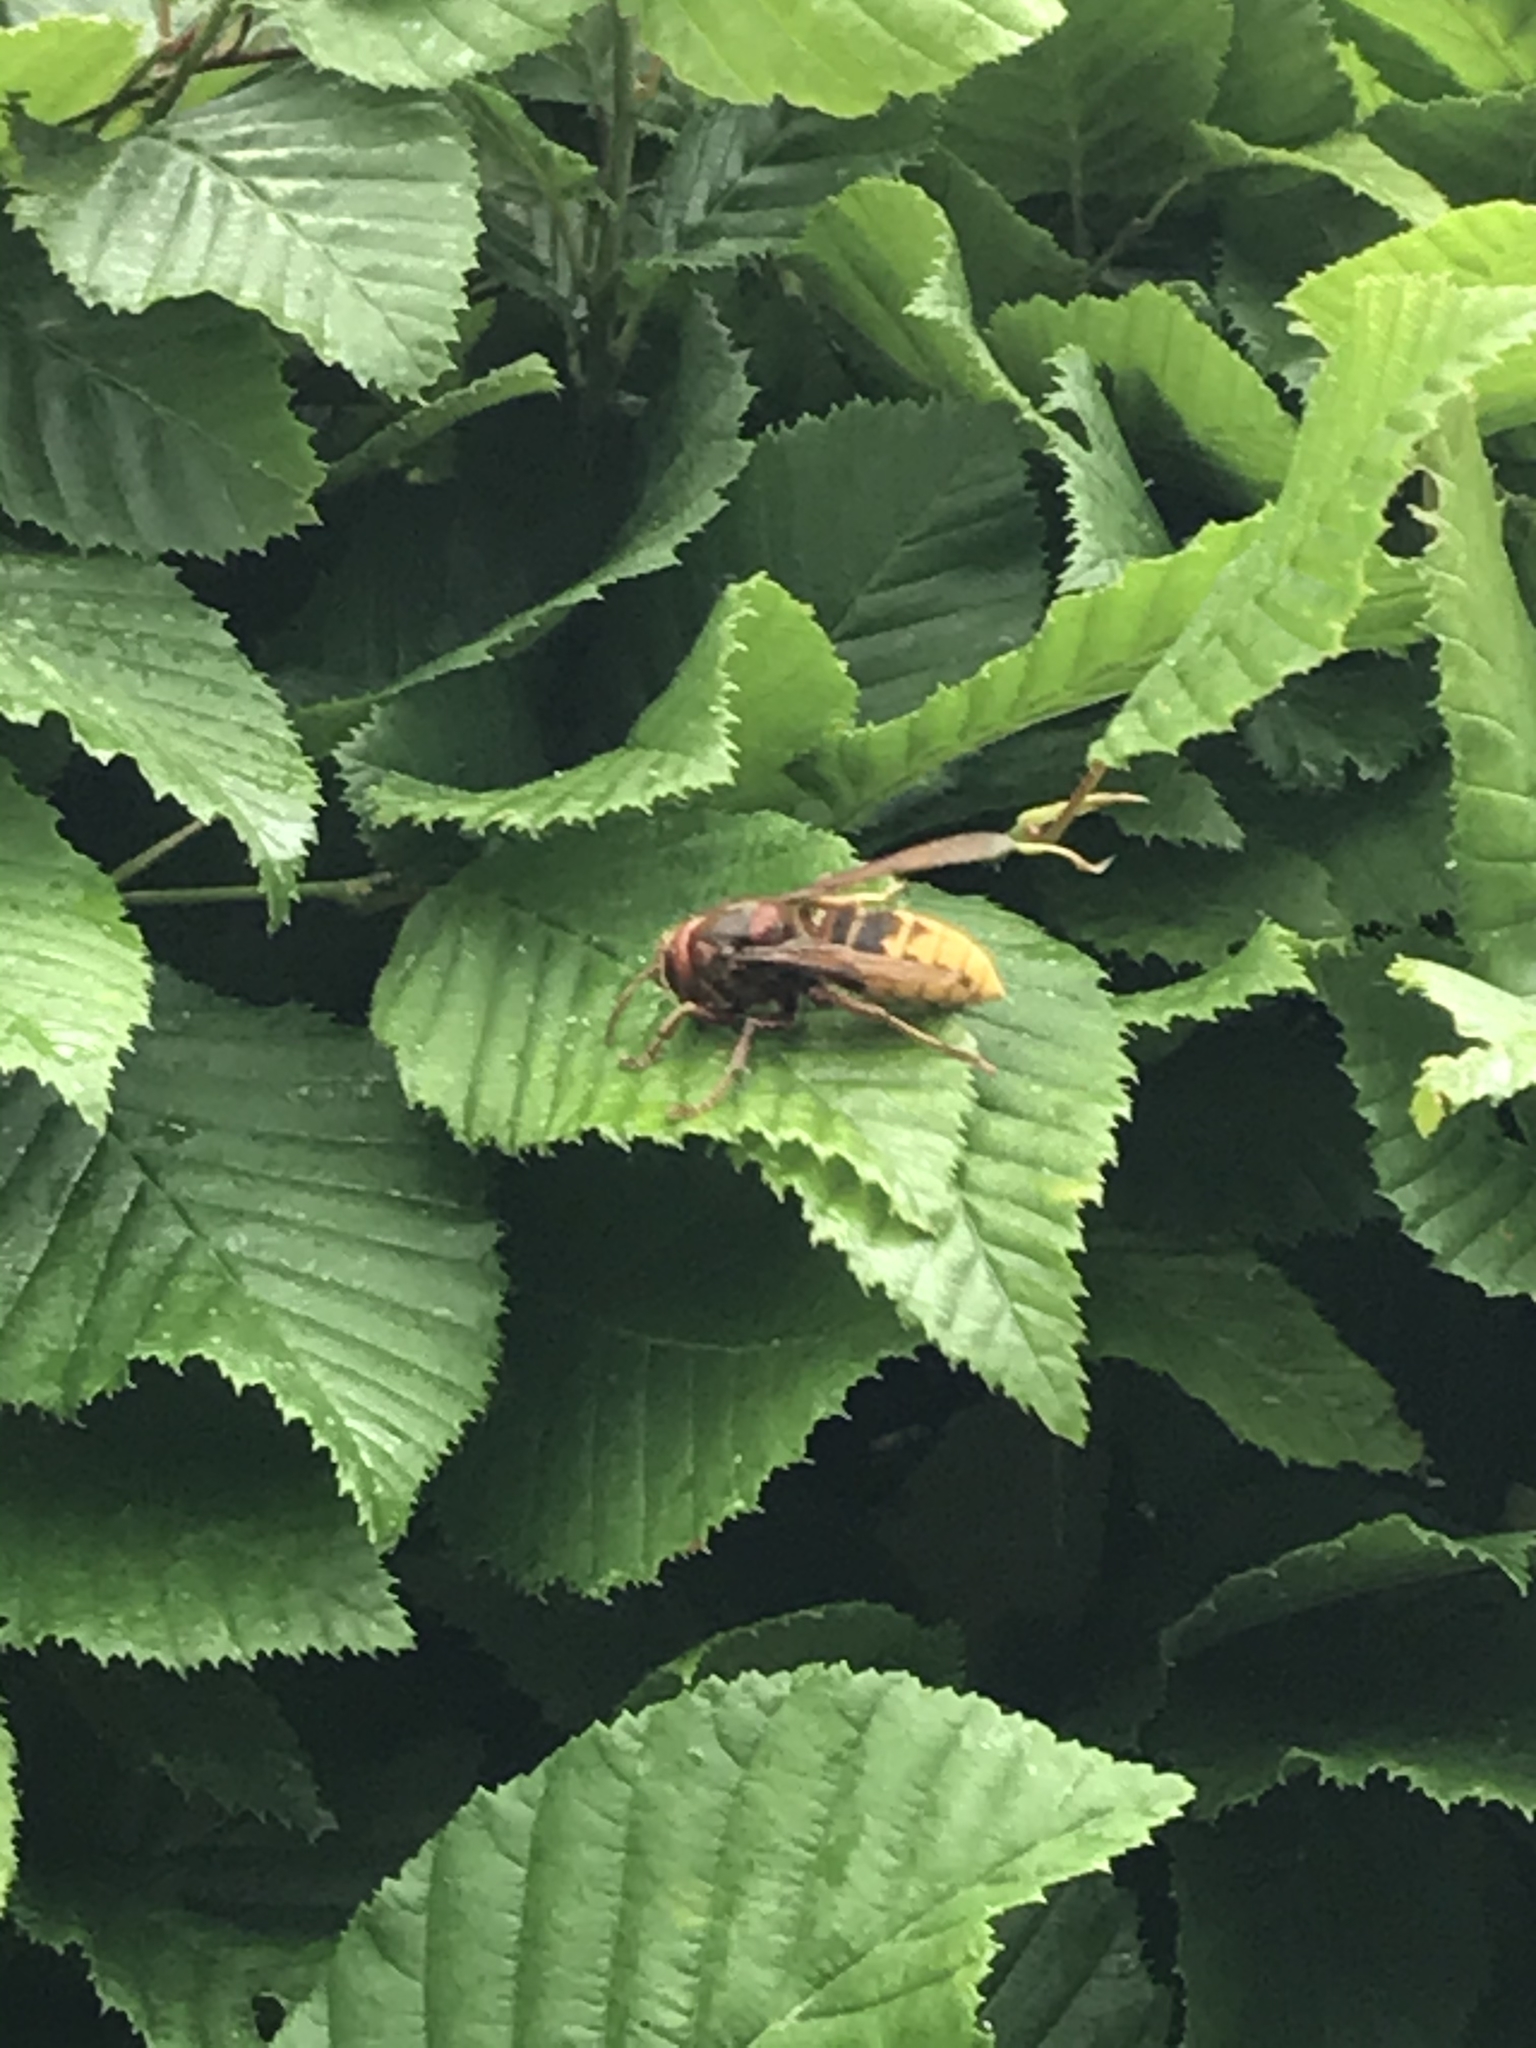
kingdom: Animalia
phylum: Arthropoda
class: Insecta
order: Hymenoptera
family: Vespidae
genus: Vespa
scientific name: Vespa crabro
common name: Hornet
